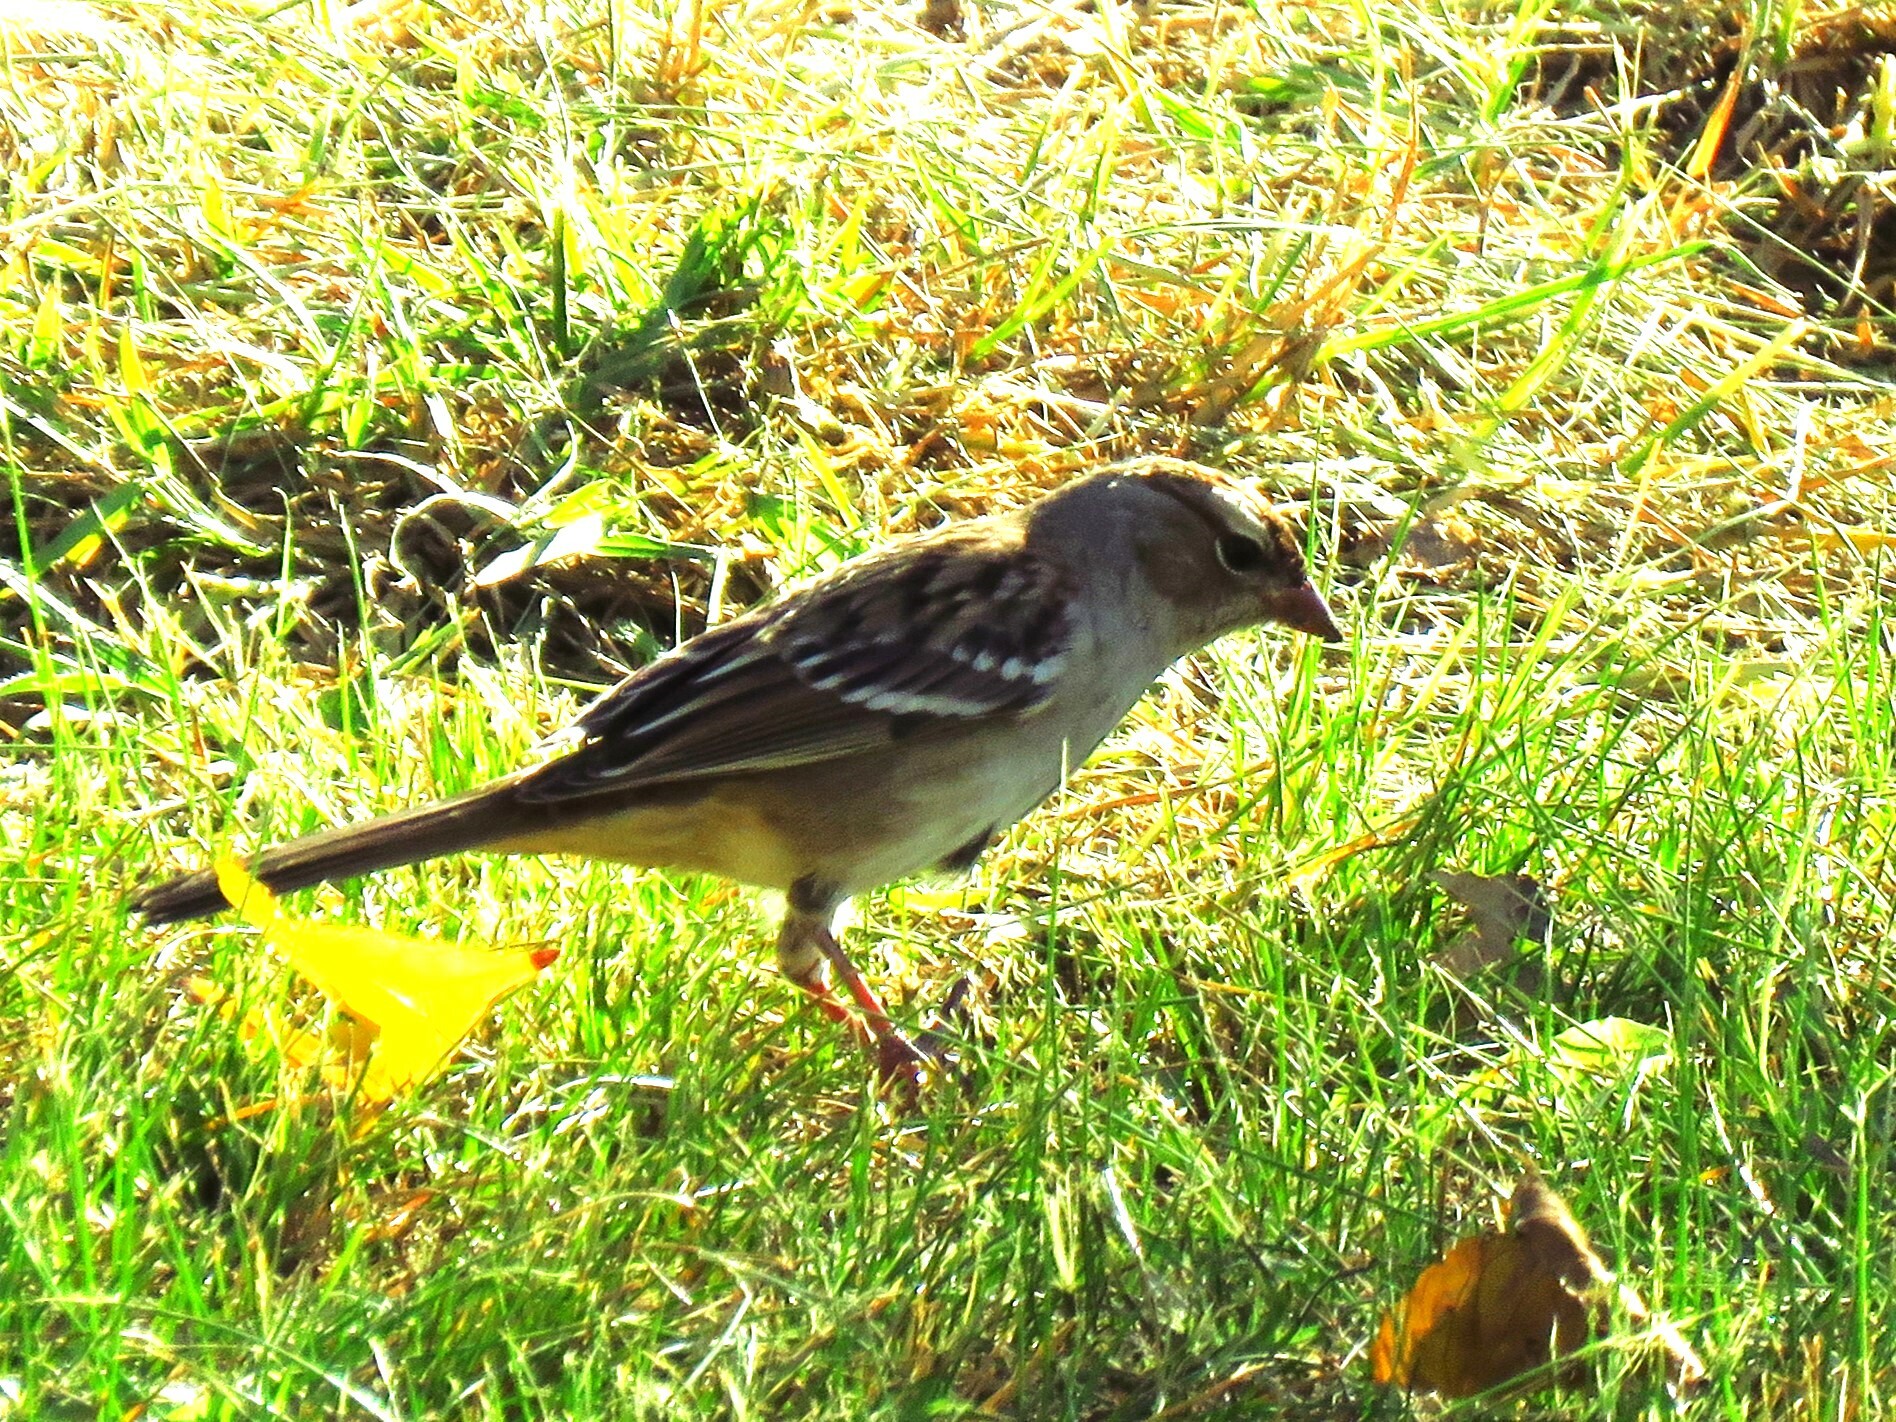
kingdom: Animalia
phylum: Chordata
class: Aves
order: Passeriformes
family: Passerellidae
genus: Zonotrichia
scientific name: Zonotrichia leucophrys
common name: White-crowned sparrow
